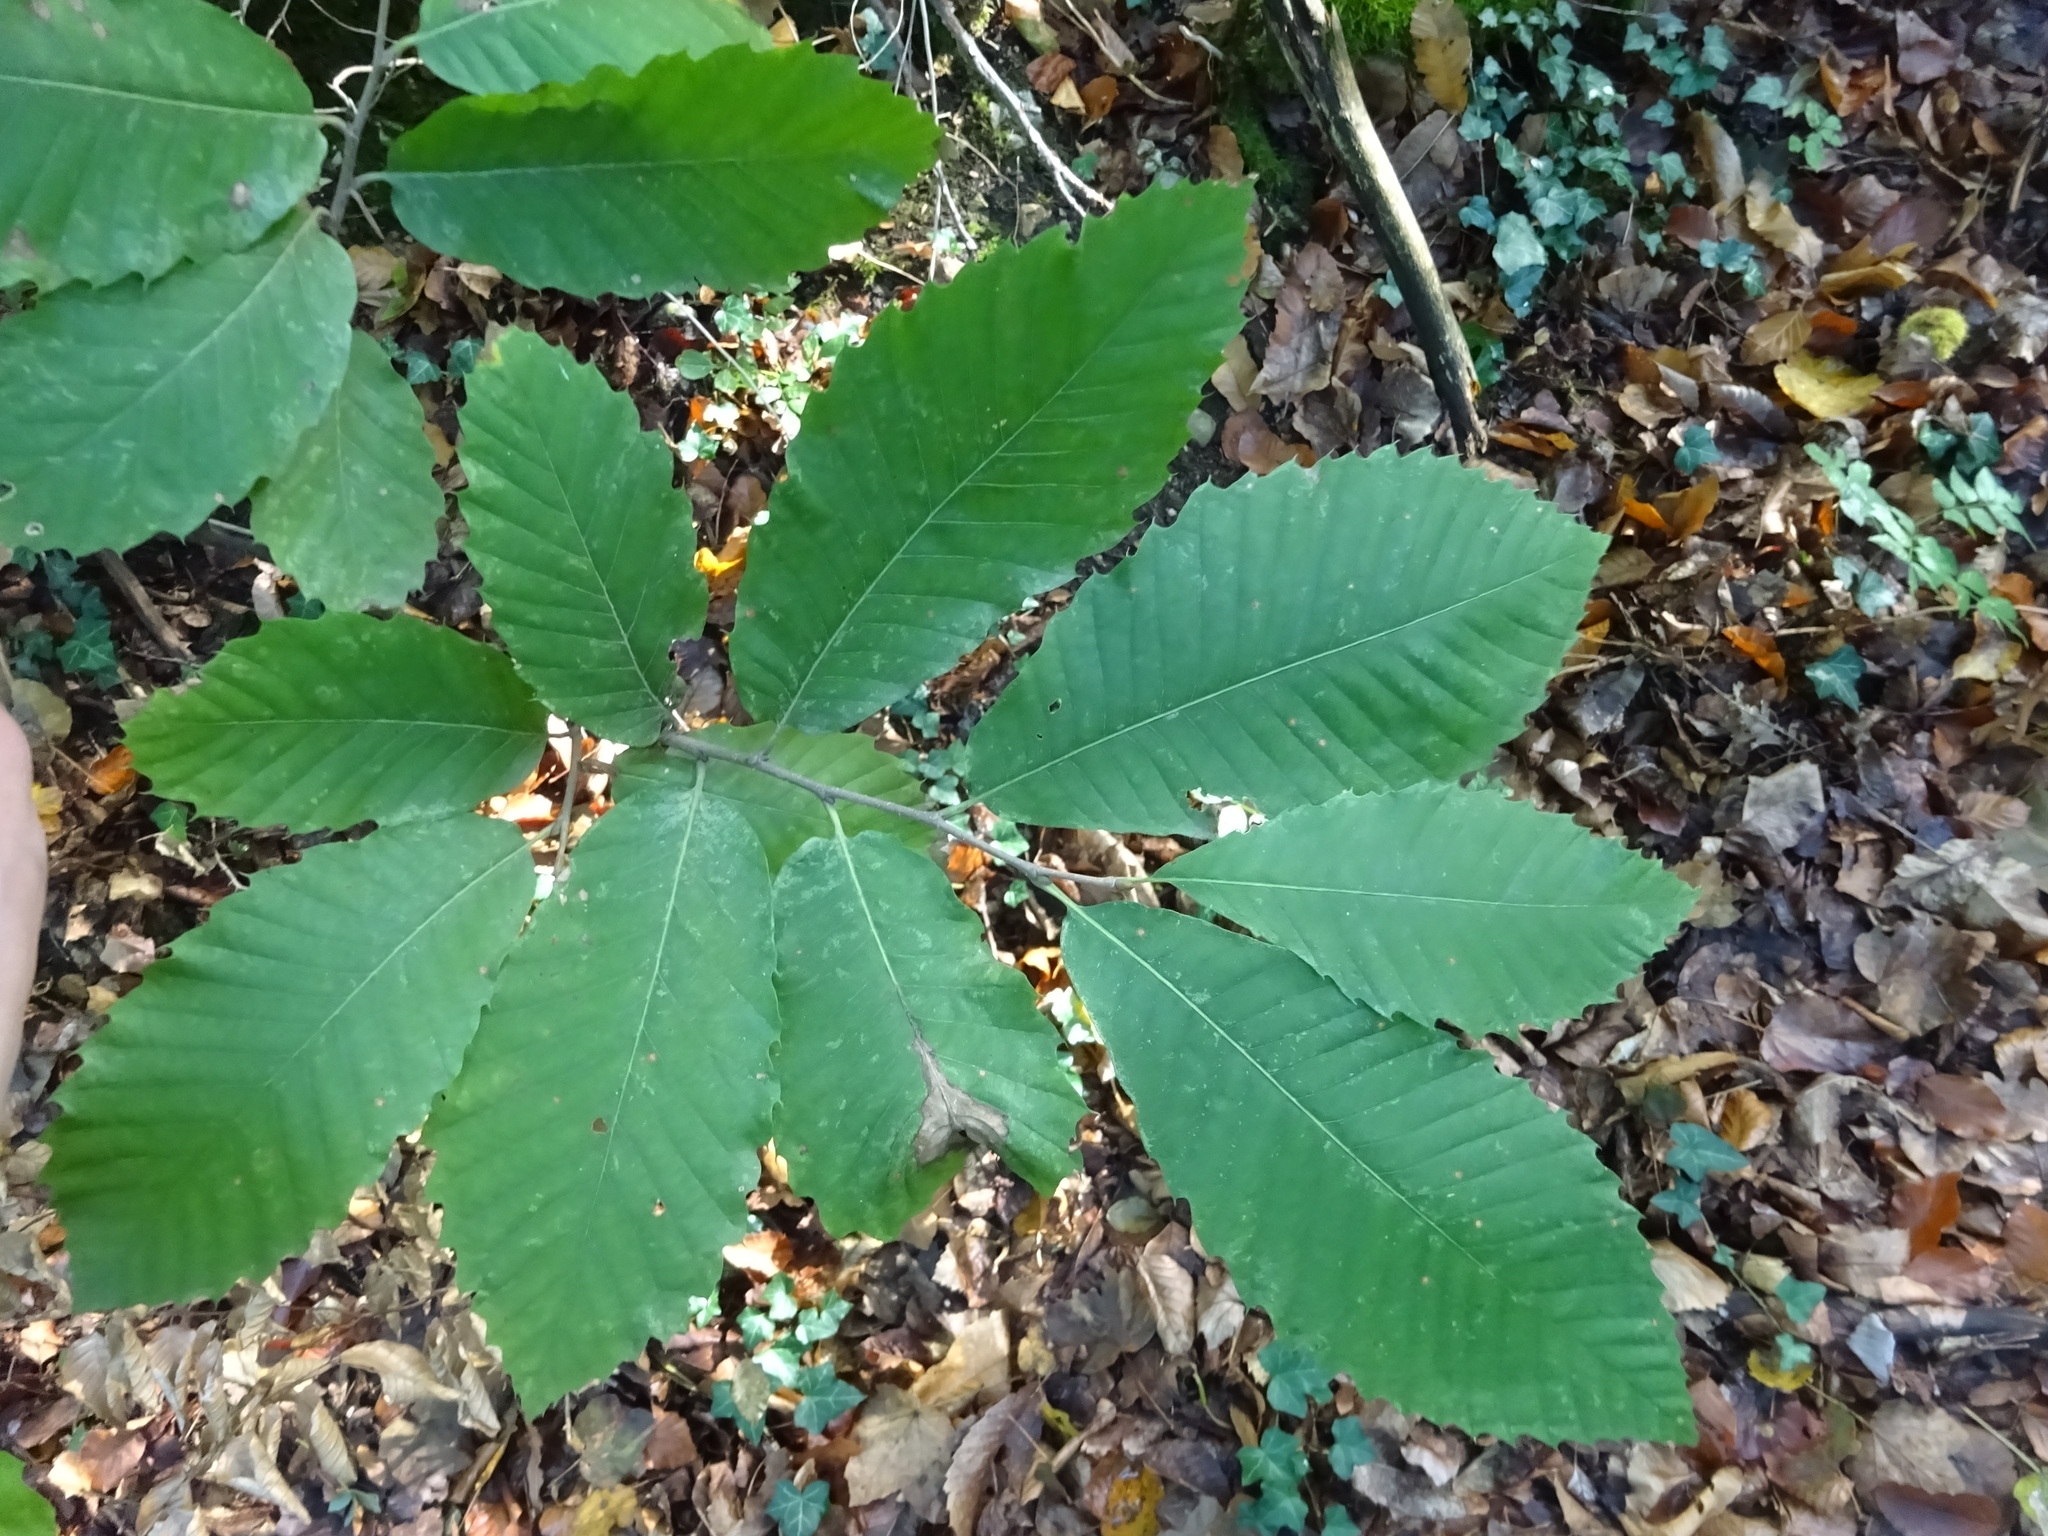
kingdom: Plantae
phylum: Tracheophyta
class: Magnoliopsida
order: Fagales
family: Fagaceae
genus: Castanea
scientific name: Castanea sativa
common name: Sweet chestnut
